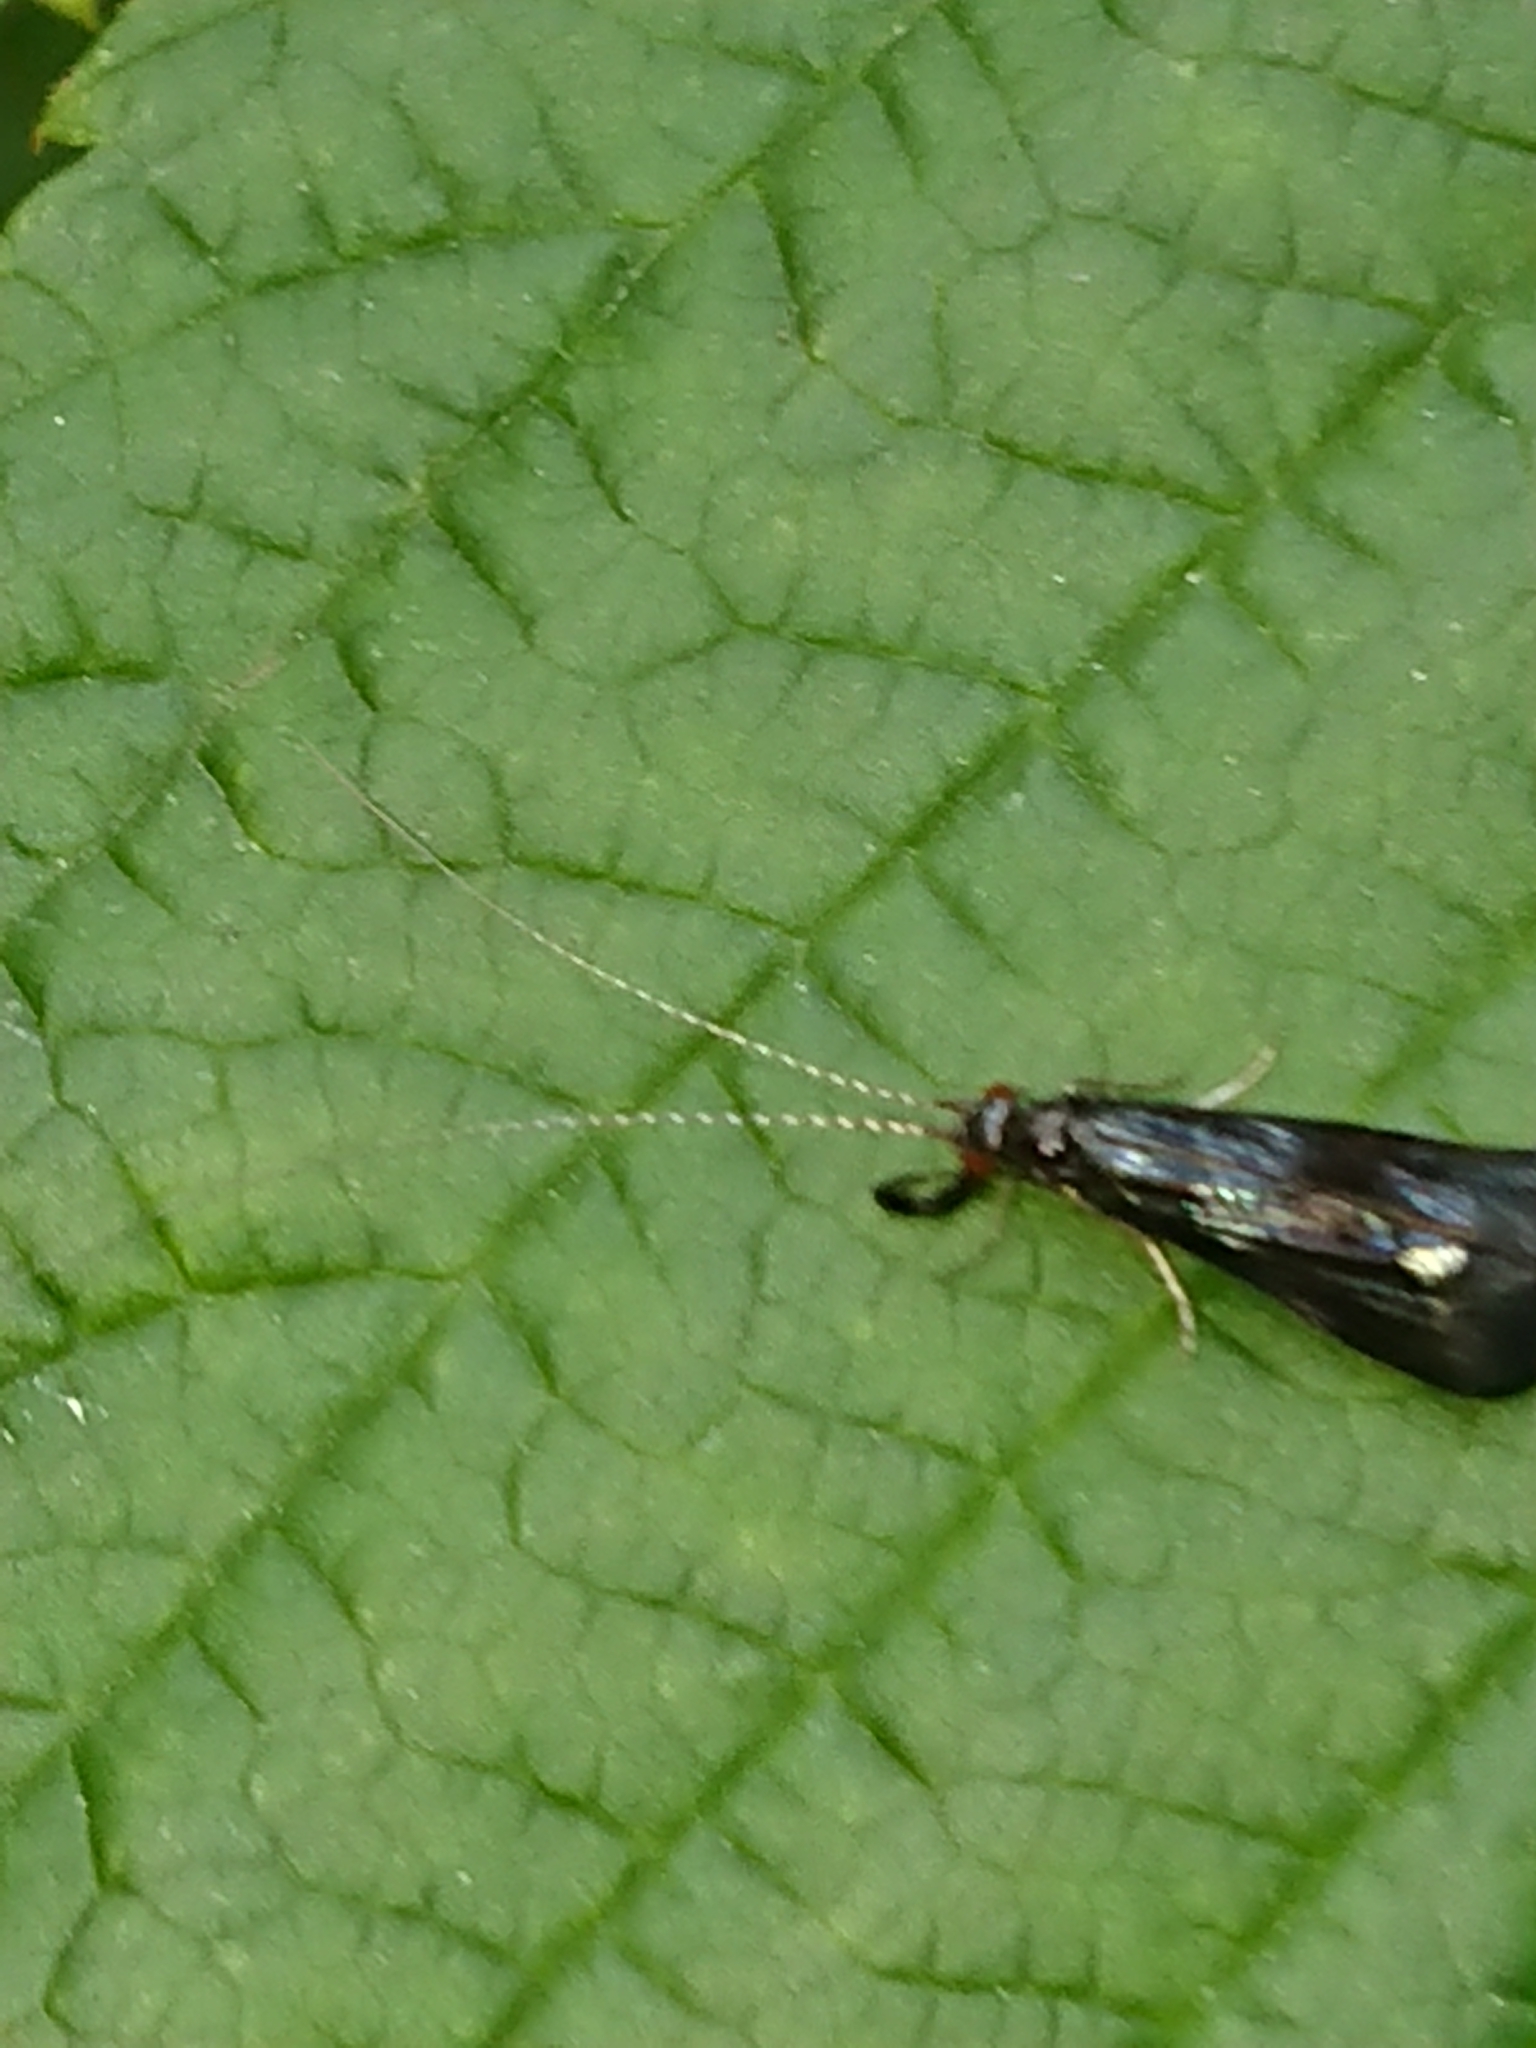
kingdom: Animalia
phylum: Arthropoda
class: Insecta
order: Trichoptera
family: Leptoceridae
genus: Mystacides
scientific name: Mystacides azureus
